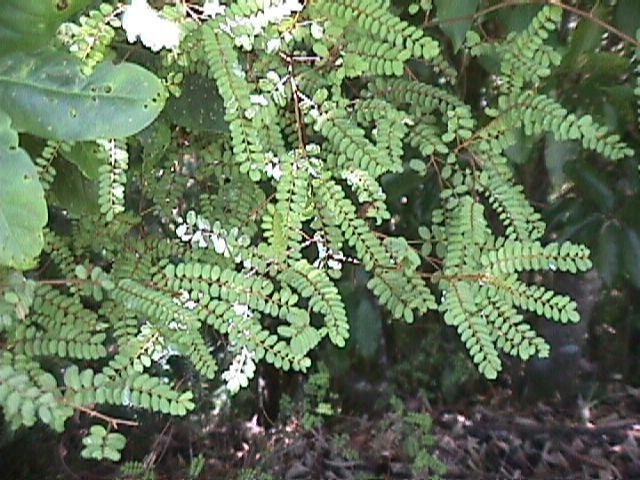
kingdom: Plantae
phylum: Tracheophyta
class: Magnoliopsida
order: Fabales
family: Fabaceae
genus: Sophora
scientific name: Sophora chathamica
